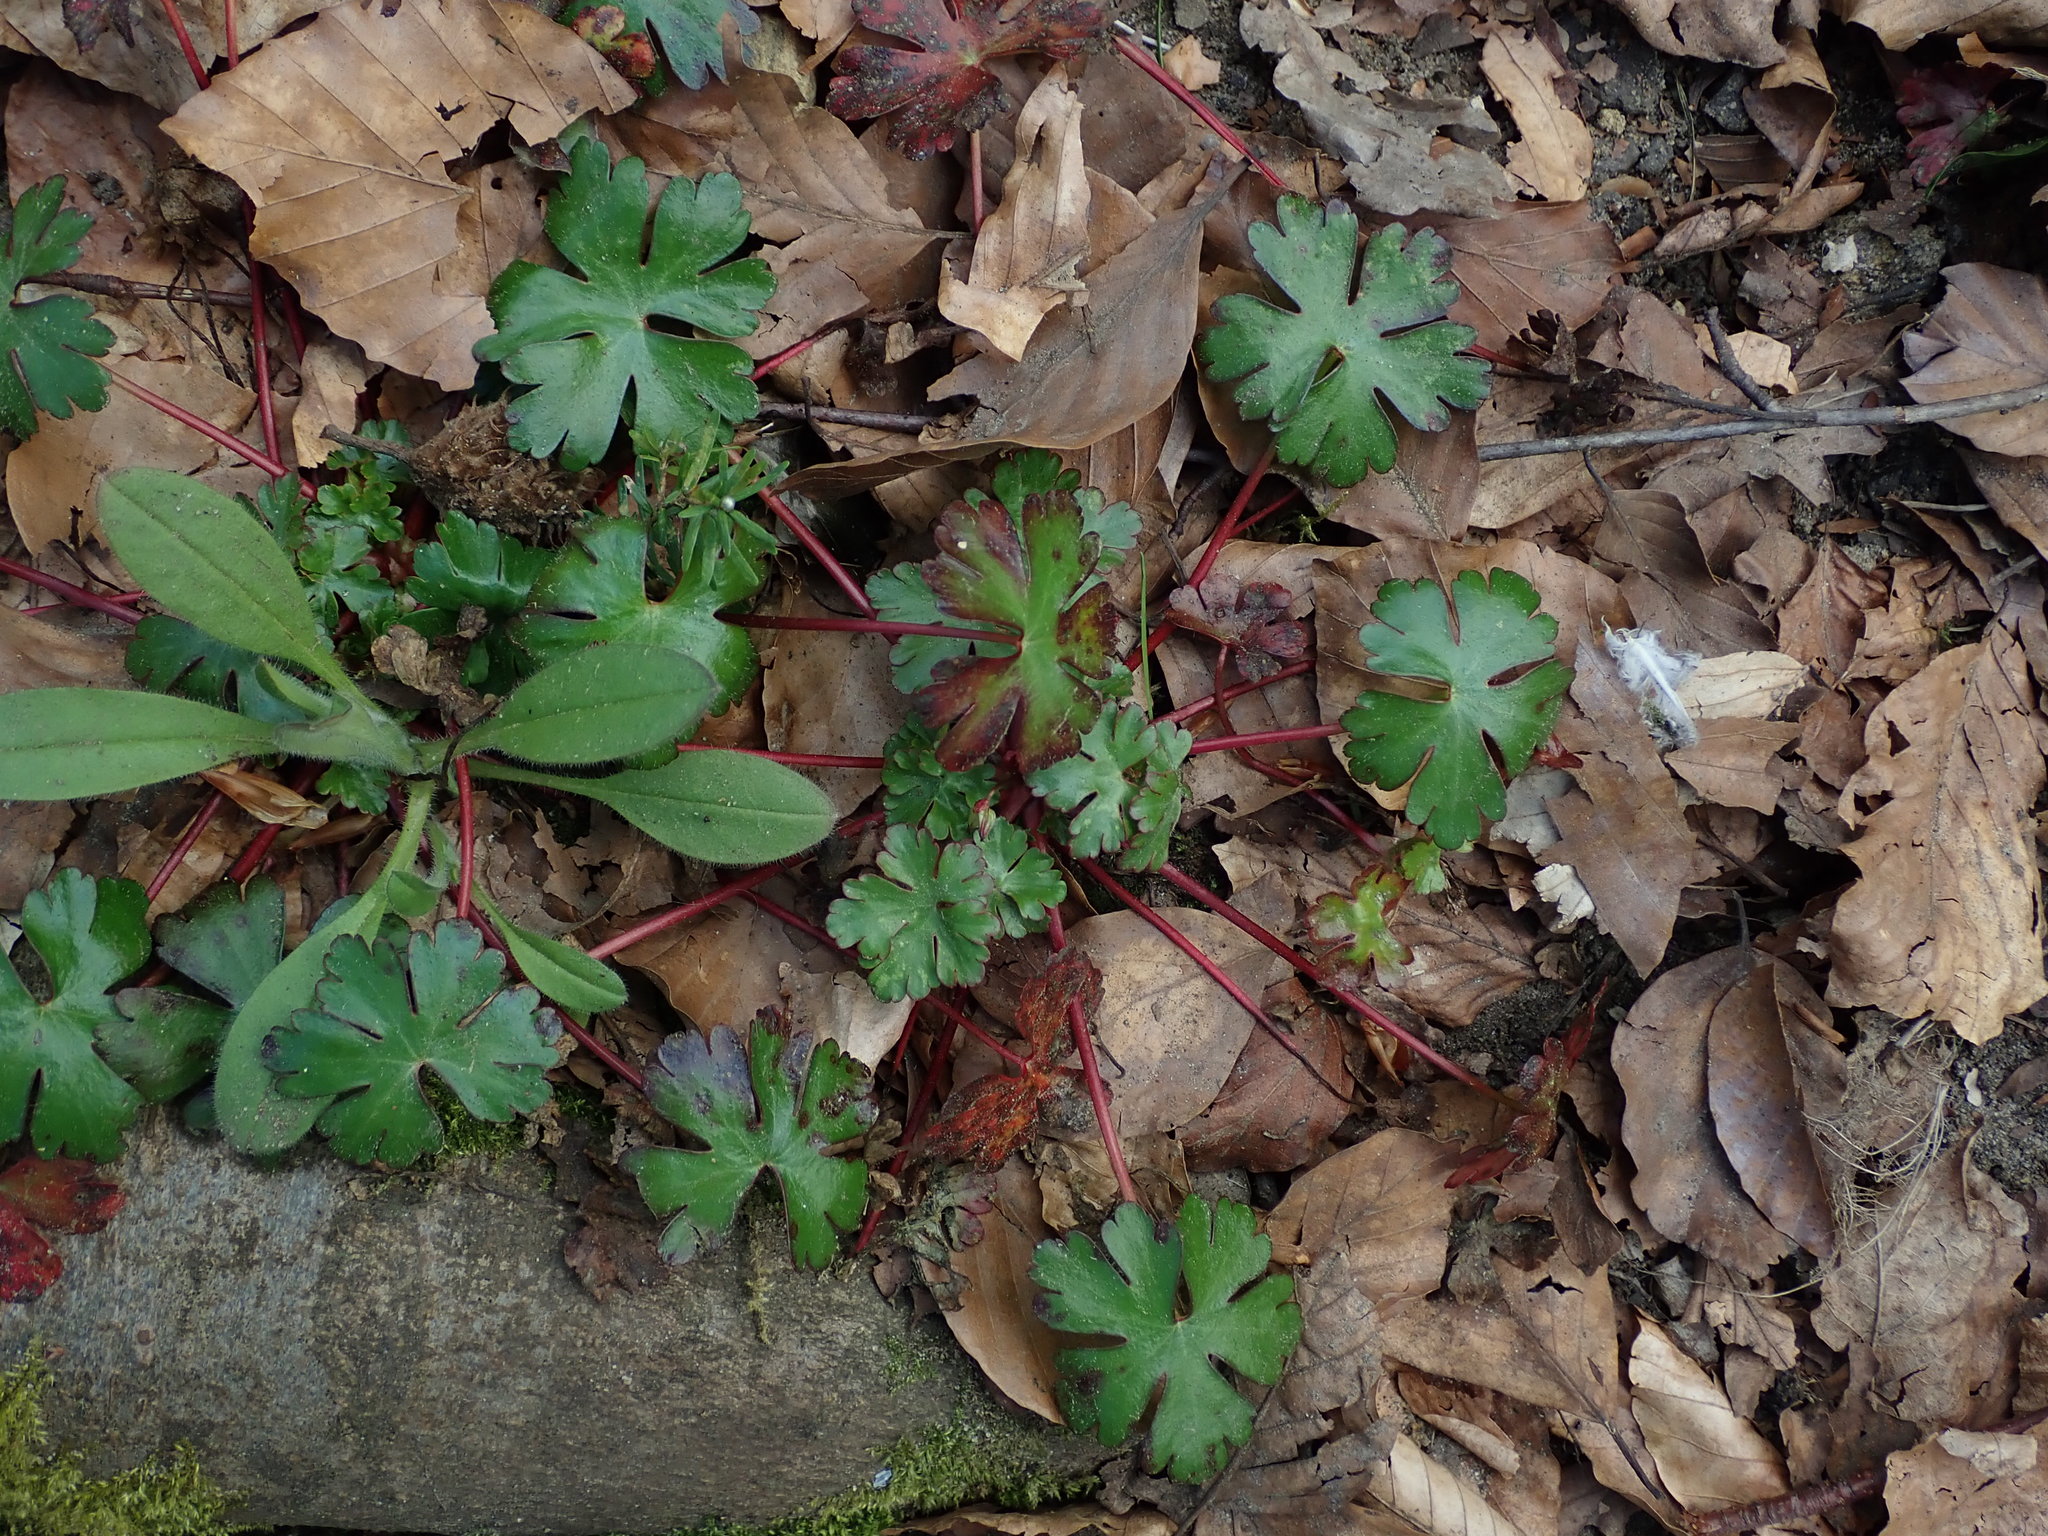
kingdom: Plantae
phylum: Tracheophyta
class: Magnoliopsida
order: Geraniales
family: Geraniaceae
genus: Geranium
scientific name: Geranium lucidum
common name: Shining crane's-bill
